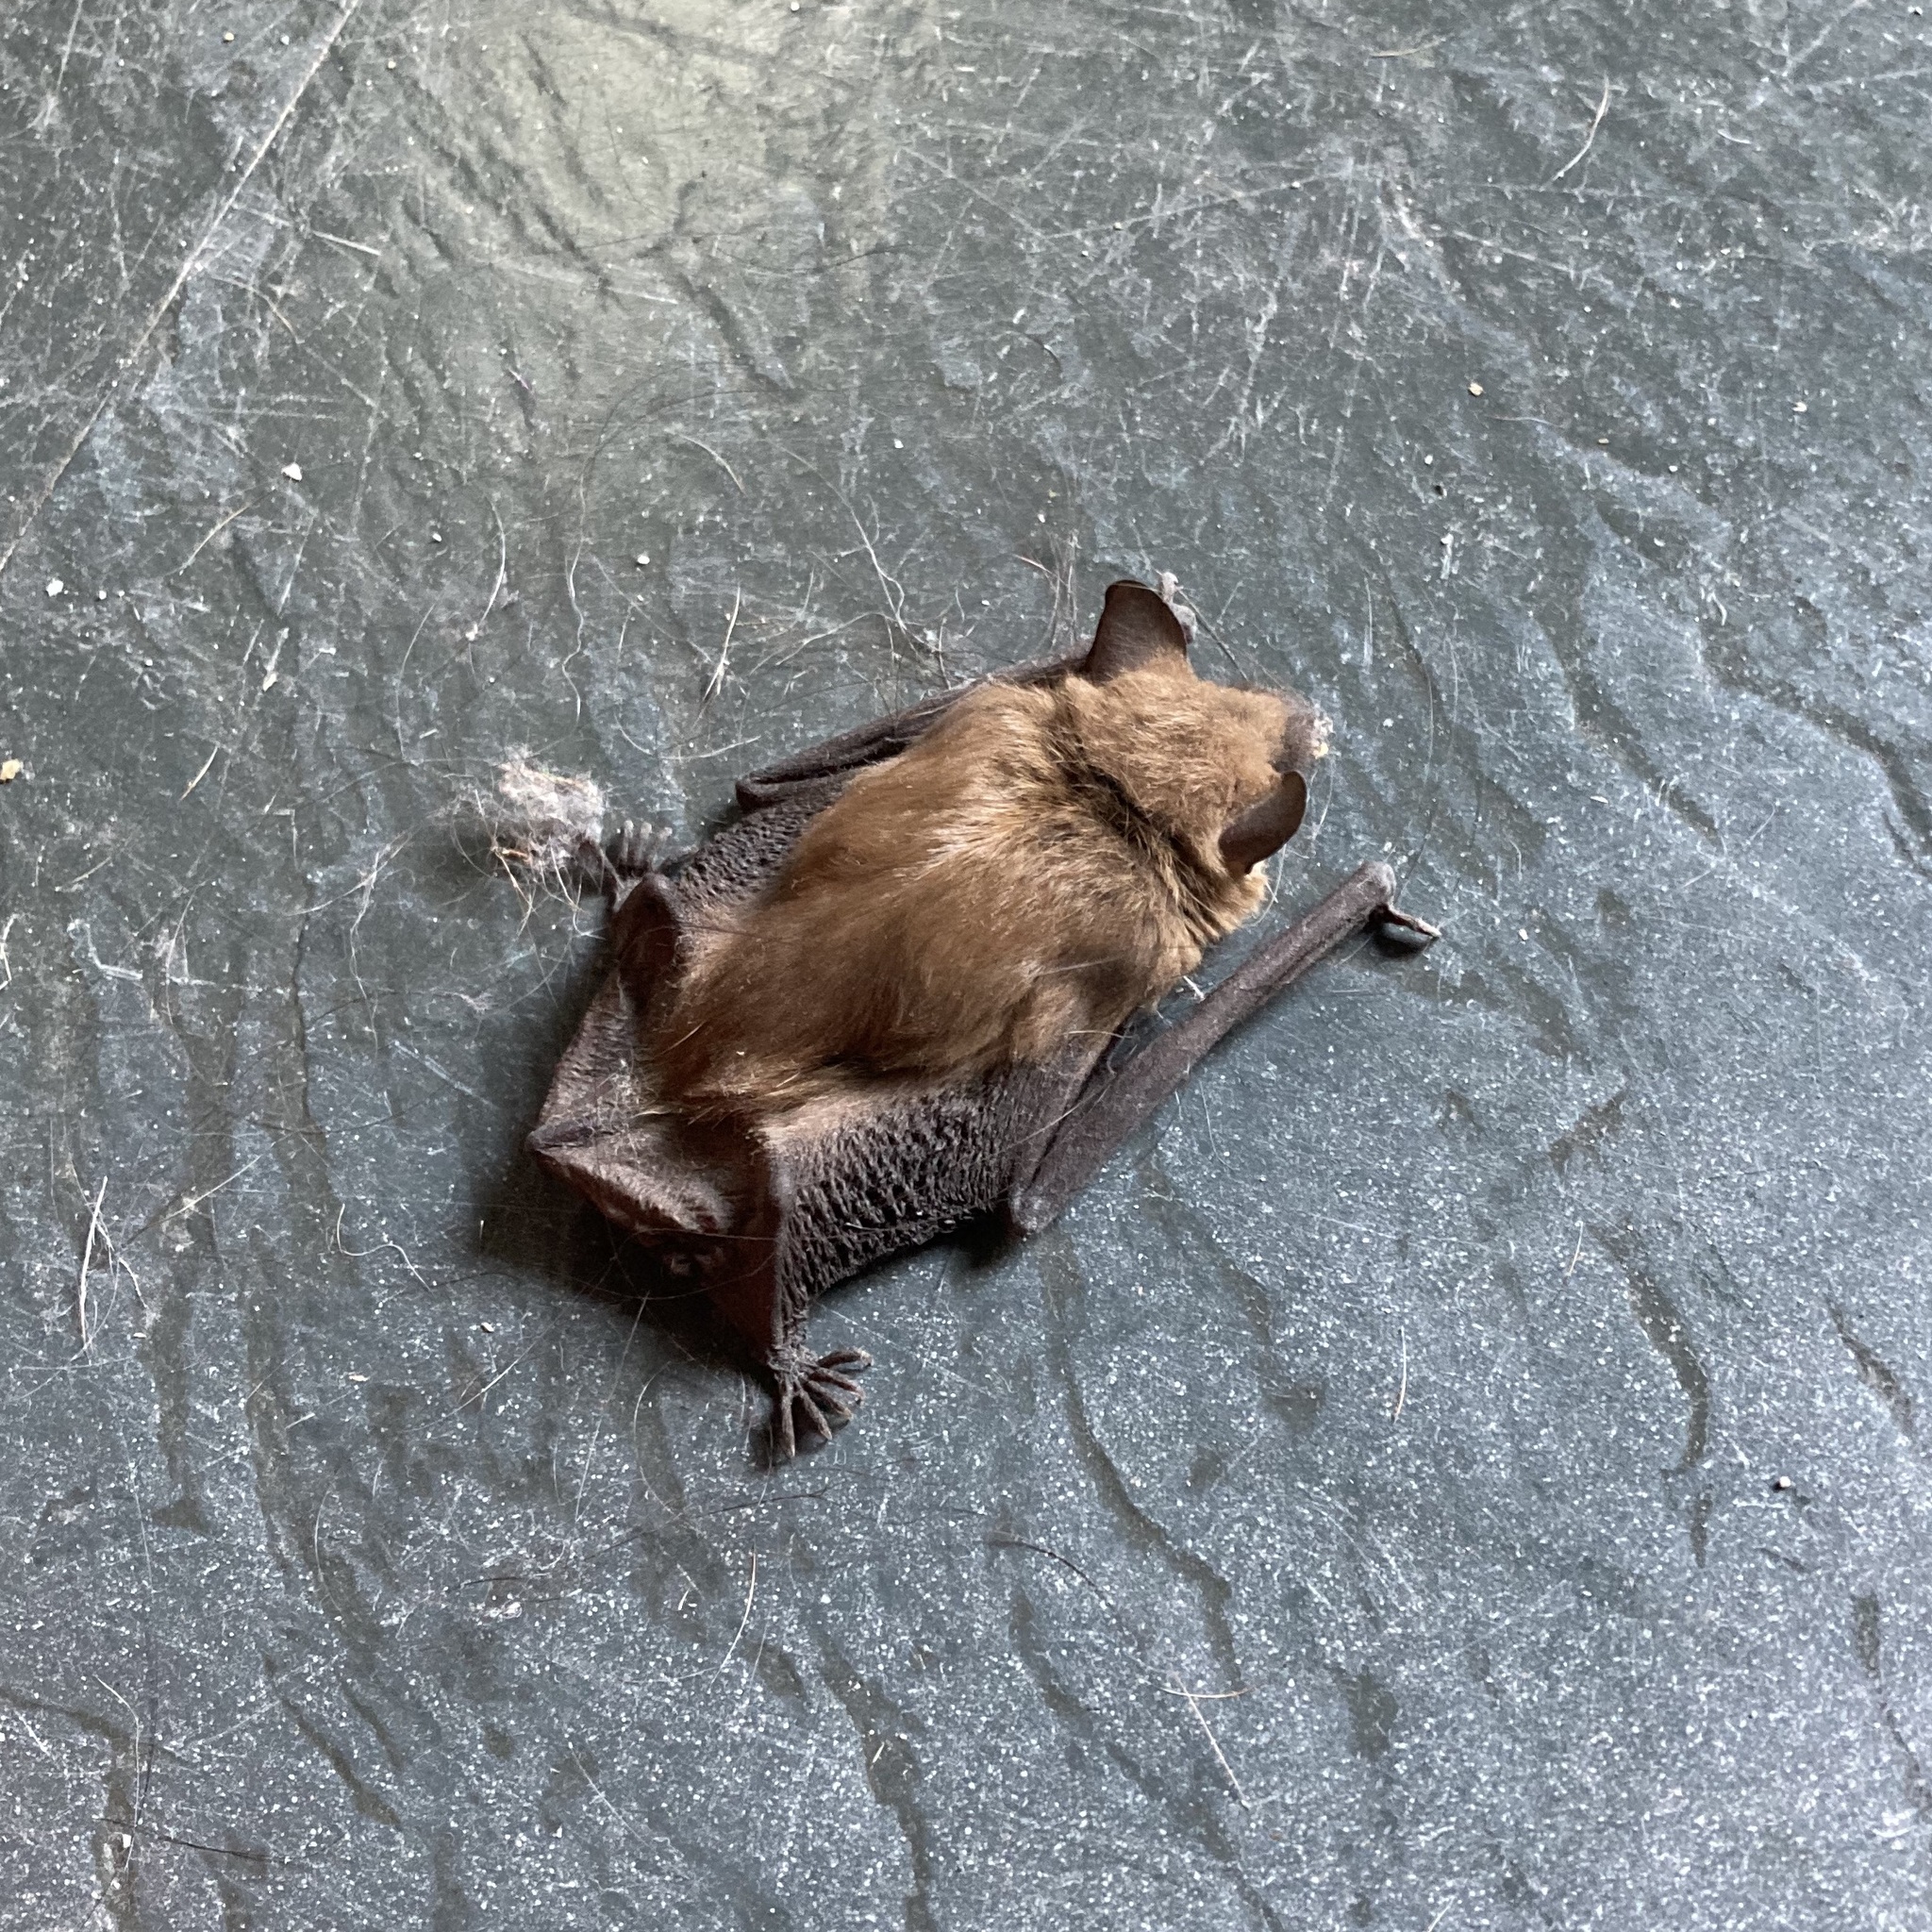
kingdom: Animalia
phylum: Chordata
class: Mammalia
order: Chiroptera
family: Vespertilionidae
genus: Eptesicus
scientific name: Eptesicus fuscus
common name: Big brown bat
